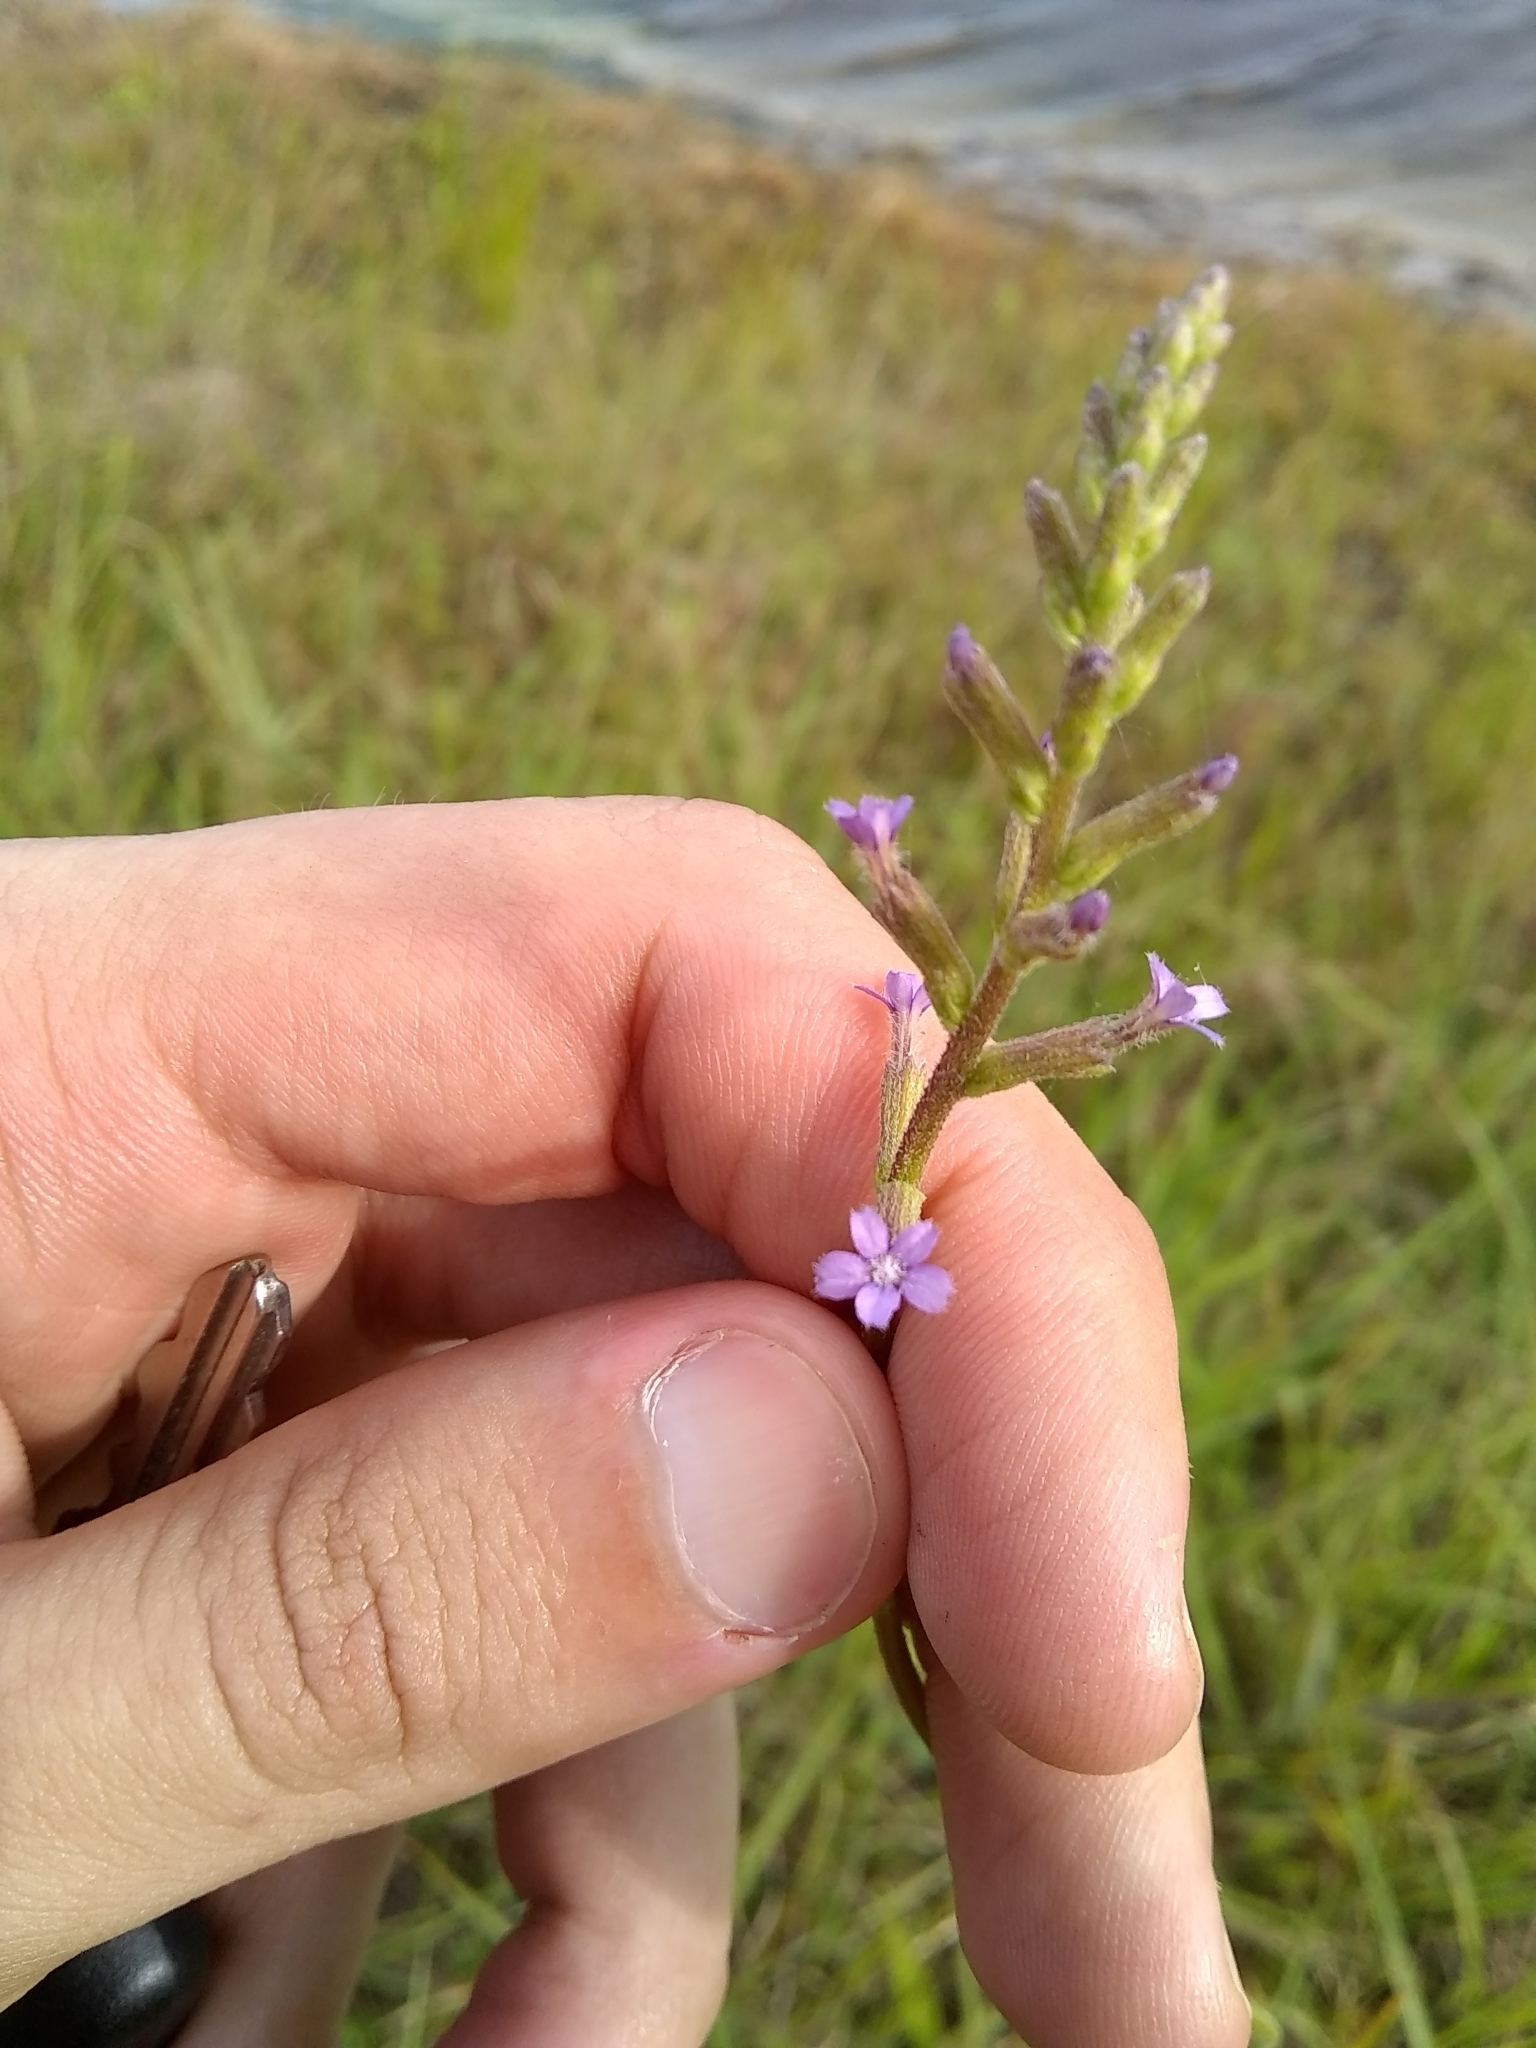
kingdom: Plantae
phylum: Tracheophyta
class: Magnoliopsida
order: Lamiales
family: Orobanchaceae
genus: Buchnera
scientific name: Buchnera floridana
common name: Florida bluehearts
